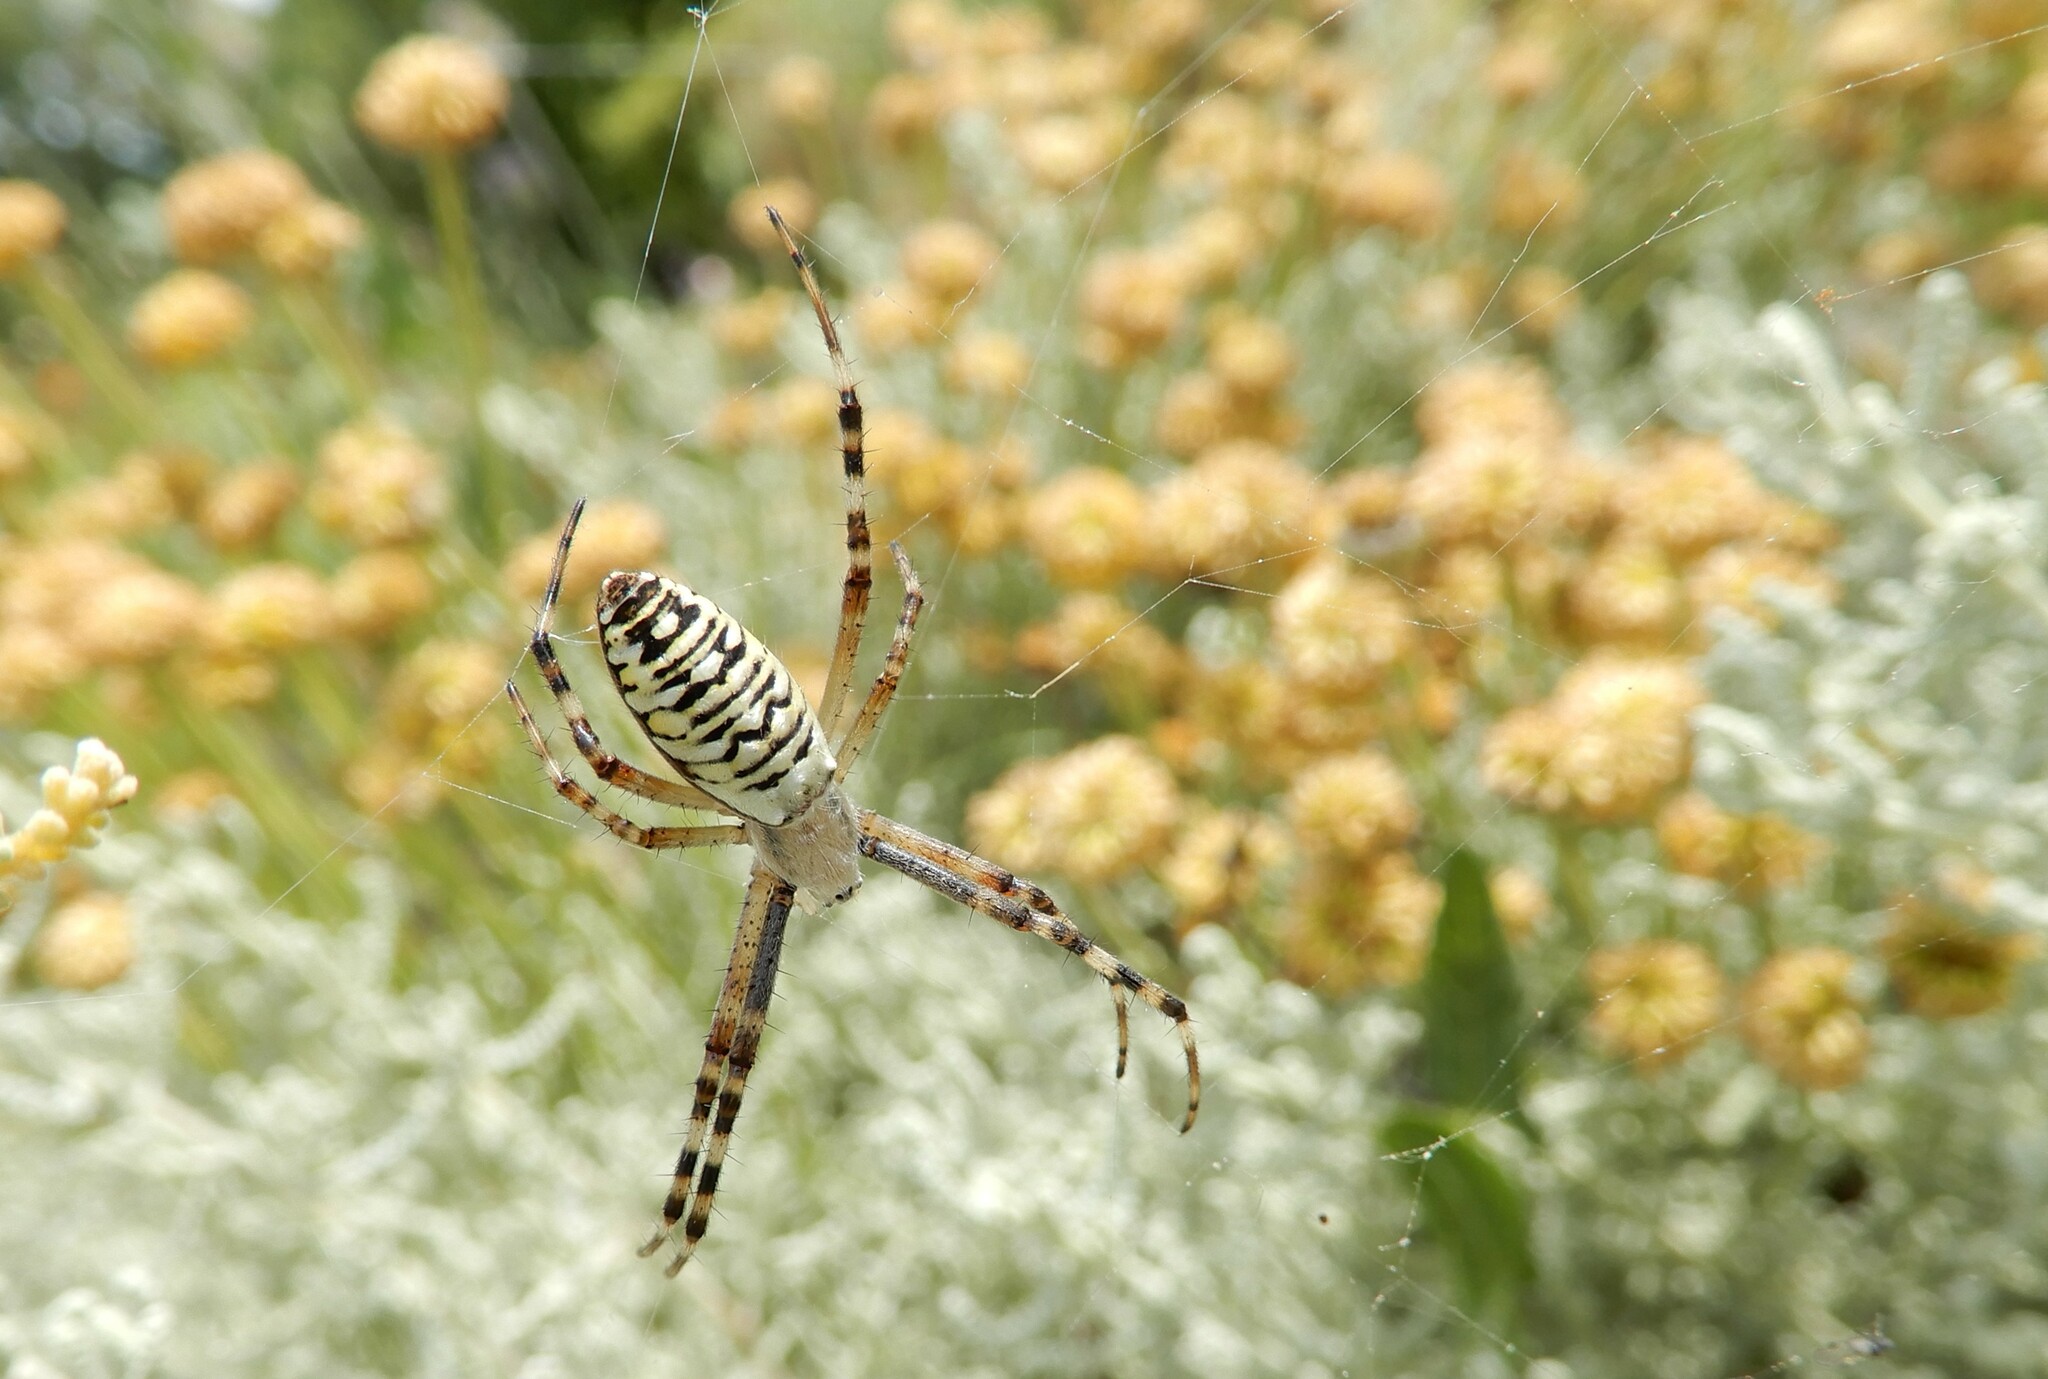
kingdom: Animalia
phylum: Arthropoda
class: Arachnida
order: Araneae
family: Araneidae
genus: Argiope
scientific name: Argiope bruennichi
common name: Wasp spider
